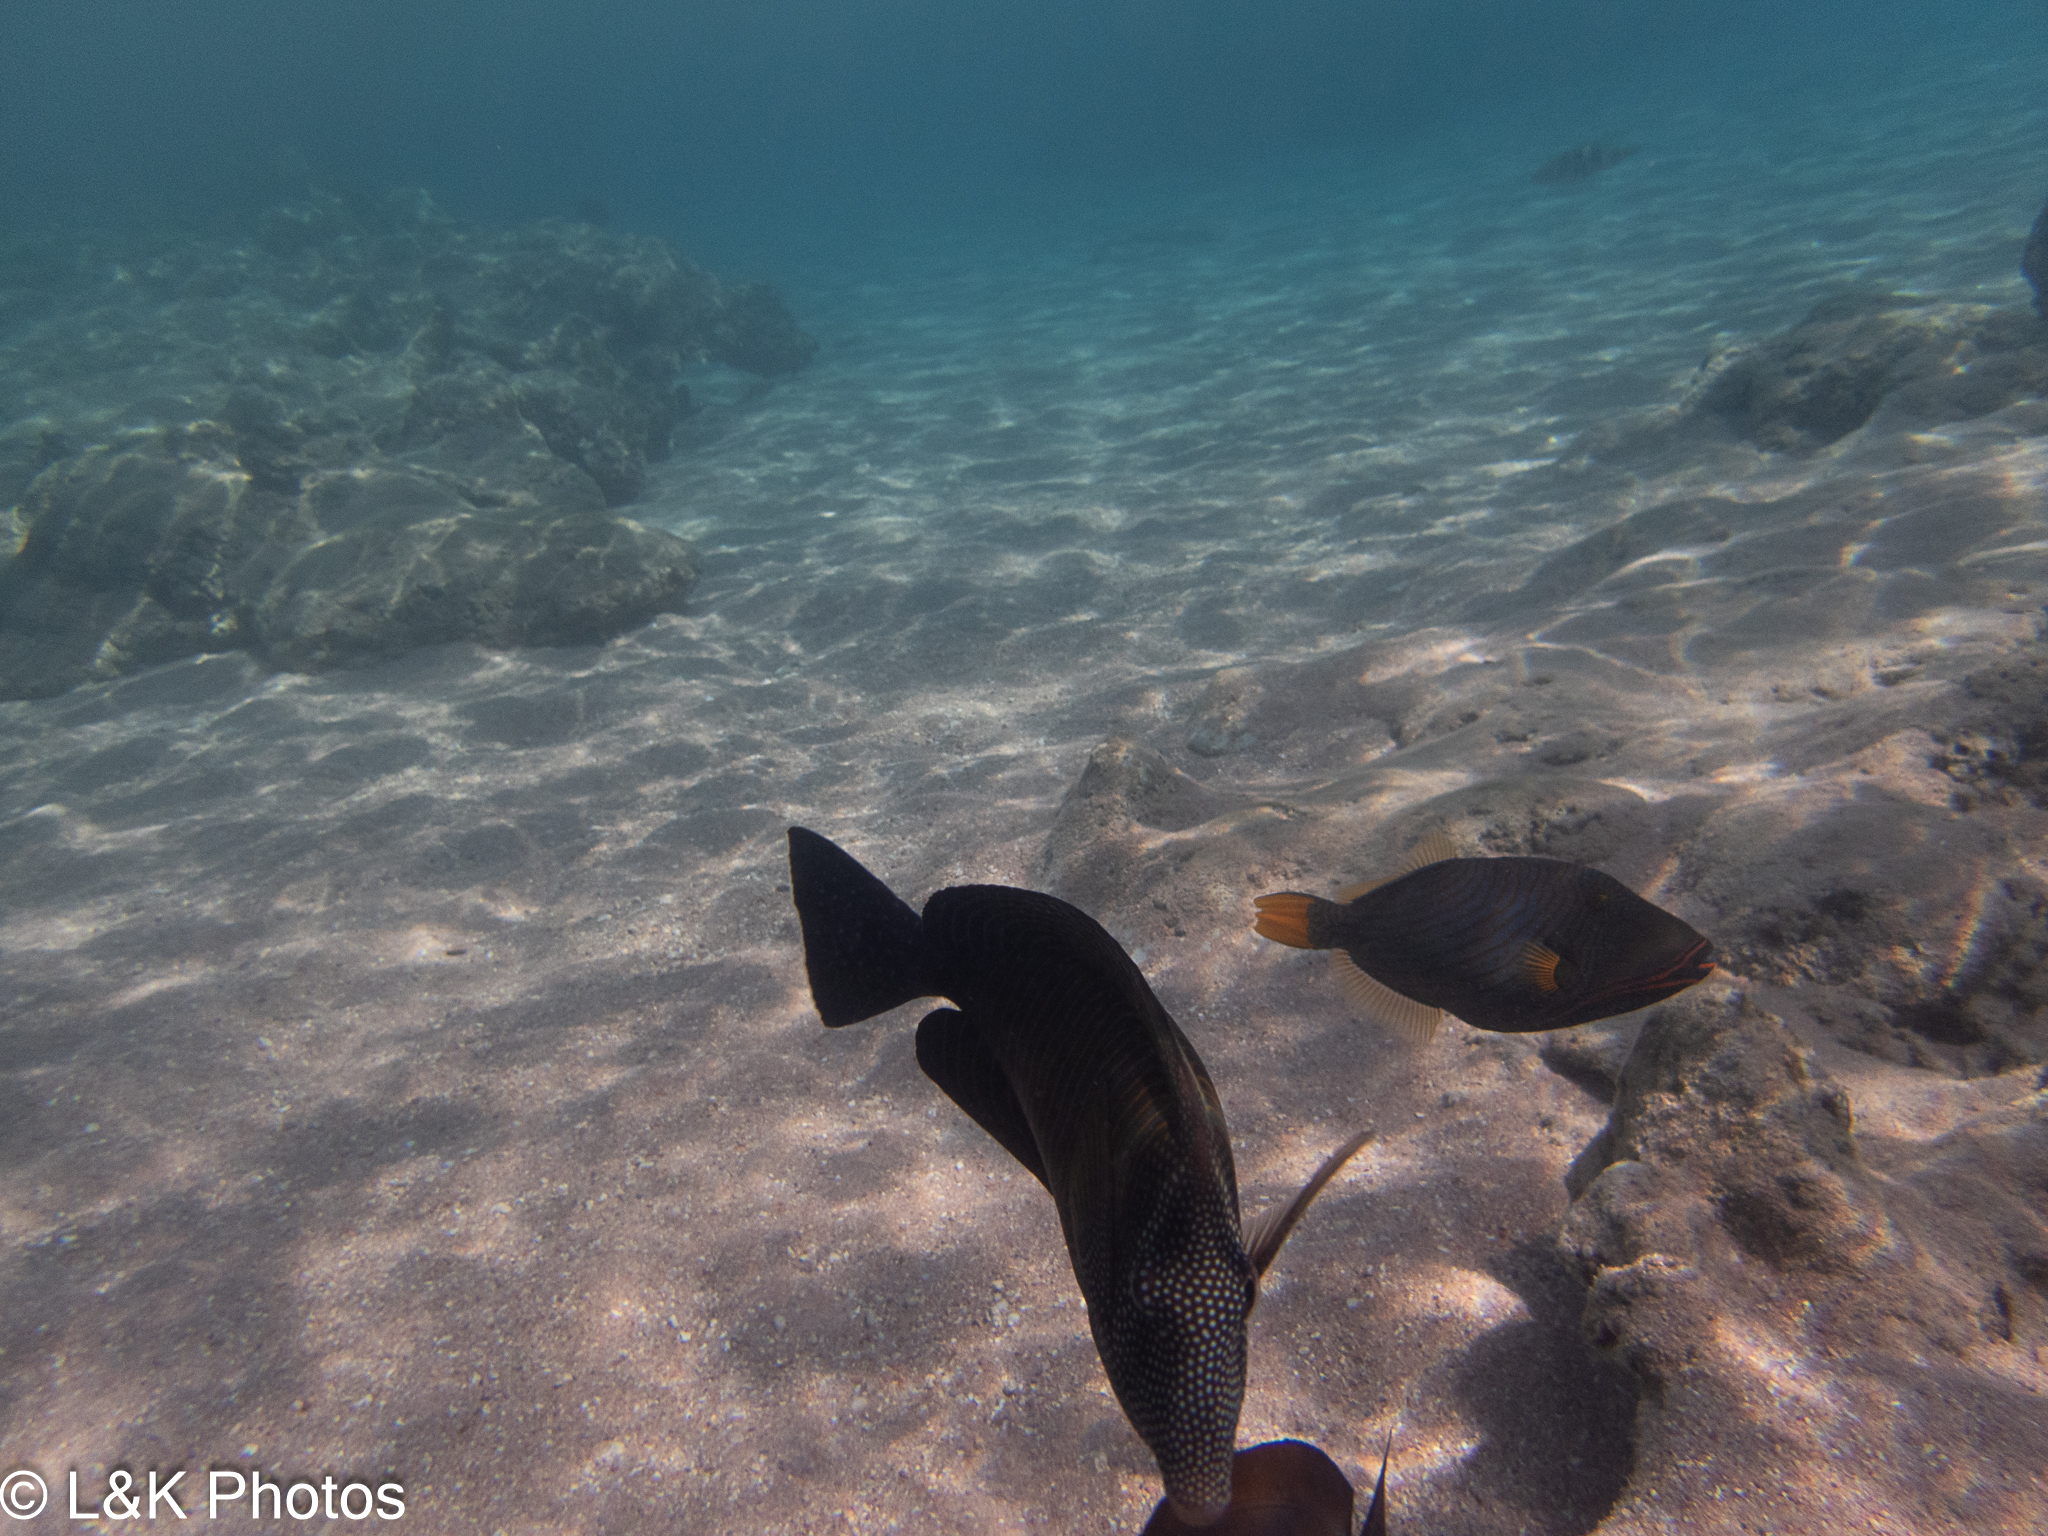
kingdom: Animalia
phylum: Chordata
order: Tetraodontiformes
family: Balistidae
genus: Balistapus
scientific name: Balistapus undulatus
